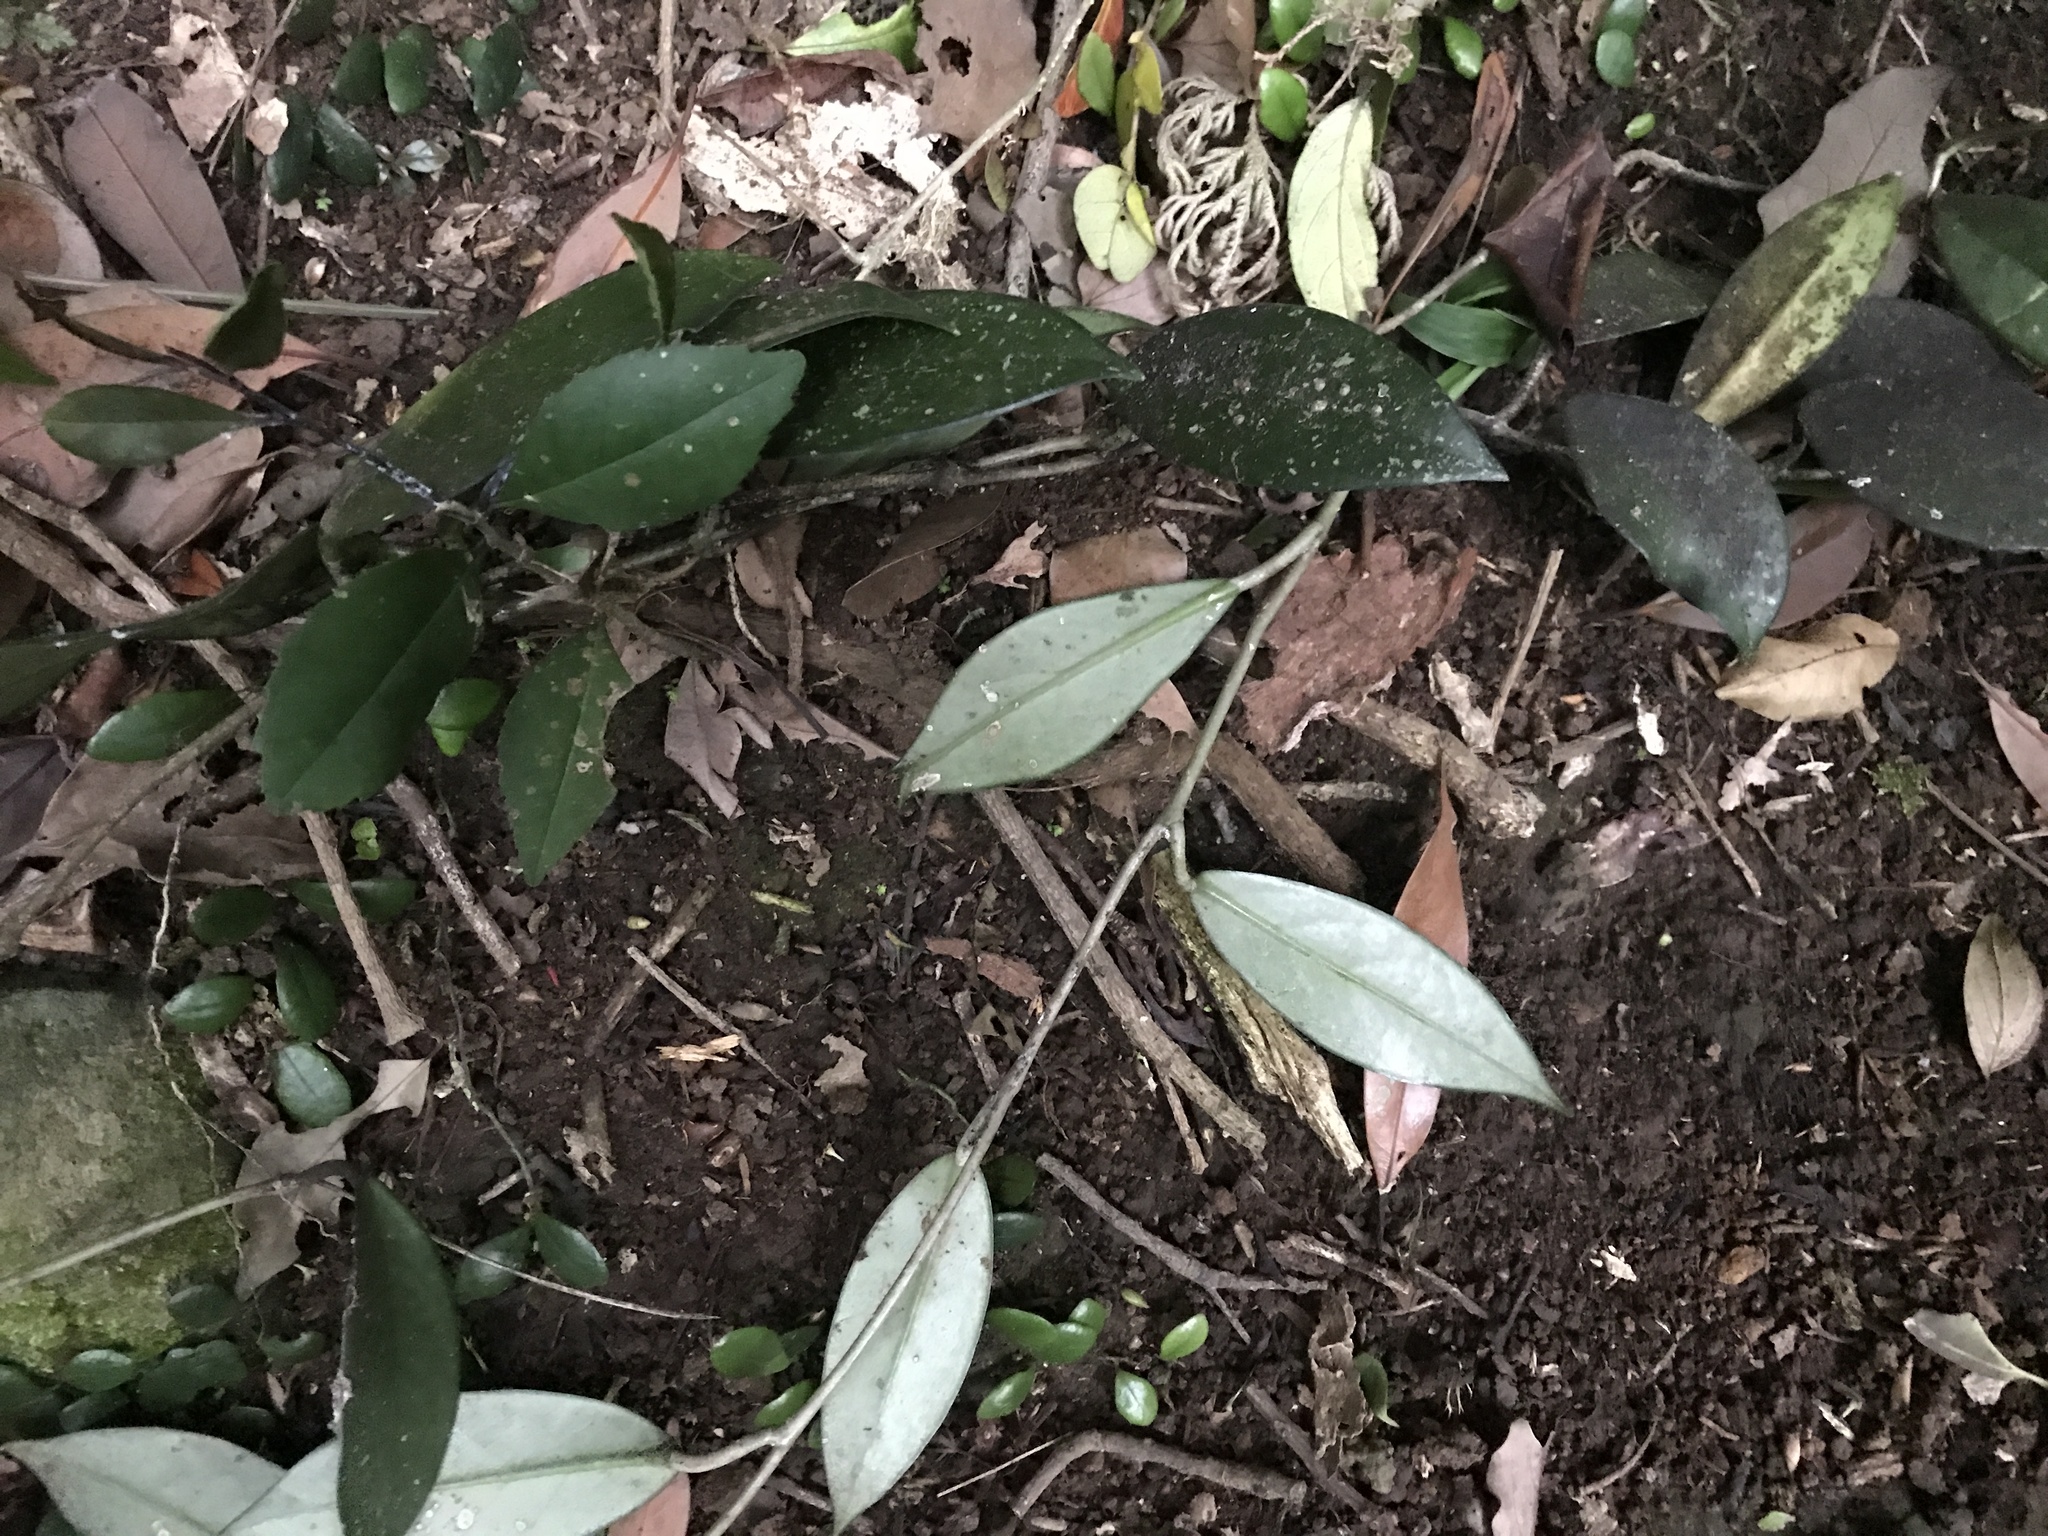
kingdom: Plantae
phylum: Tracheophyta
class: Magnoliopsida
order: Gentianales
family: Apocynaceae
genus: Hoya
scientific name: Hoya carnosa
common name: Honeyplant
